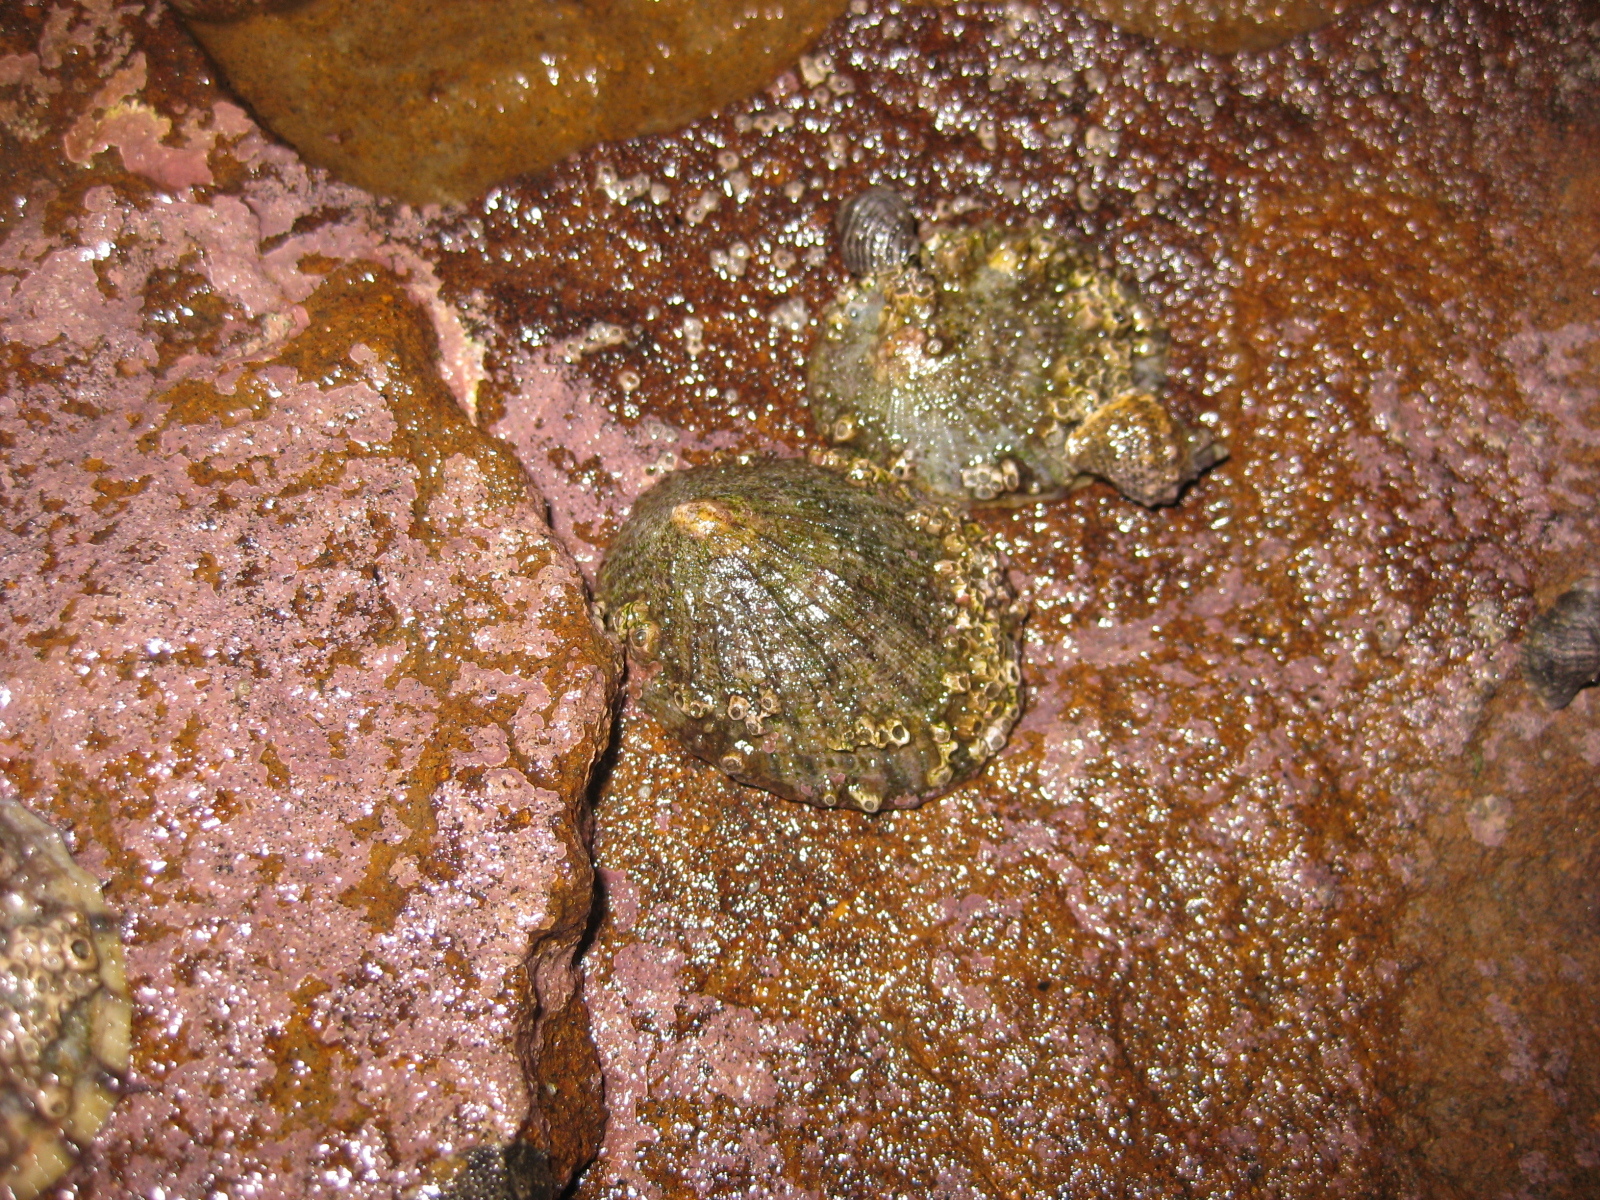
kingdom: Animalia
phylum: Mollusca
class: Gastropoda
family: Nacellidae
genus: Cellana
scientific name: Cellana radians
